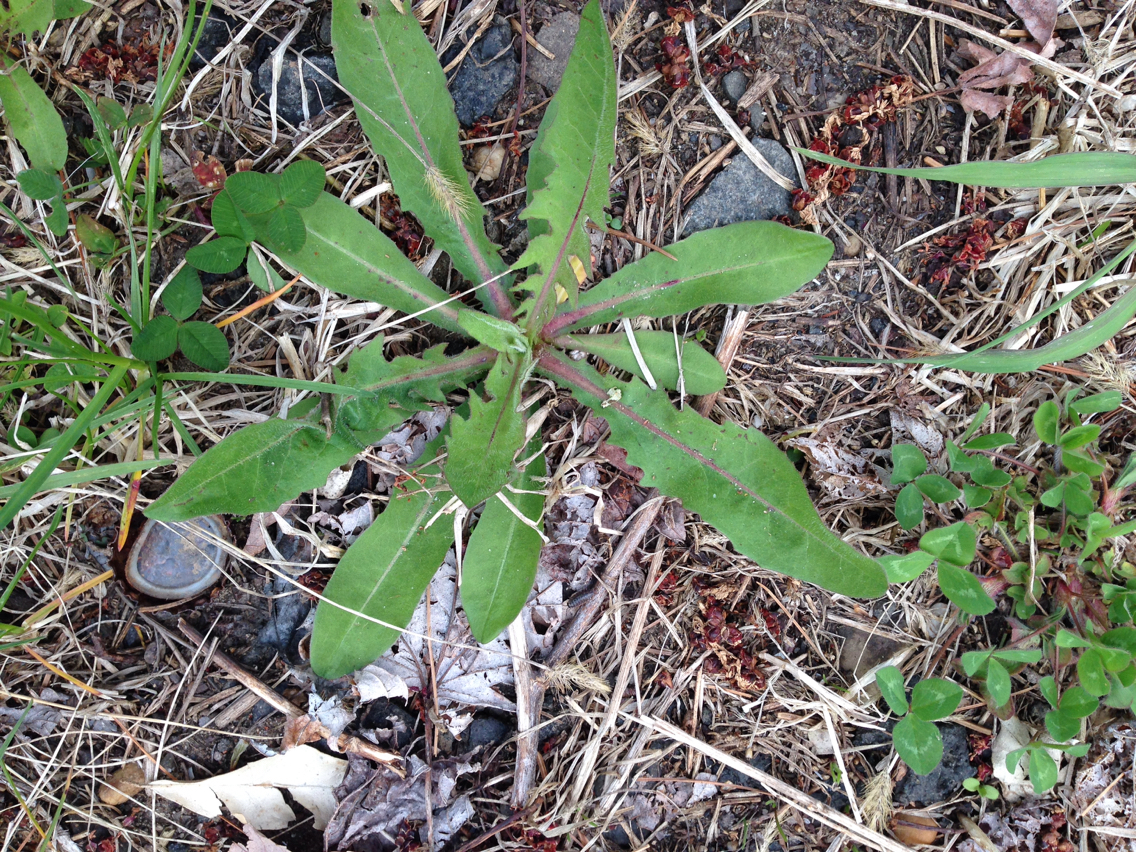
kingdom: Plantae
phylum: Tracheophyta
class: Magnoliopsida
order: Asterales
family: Asteraceae
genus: Cichorium
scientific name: Cichorium intybus
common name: Chicory
